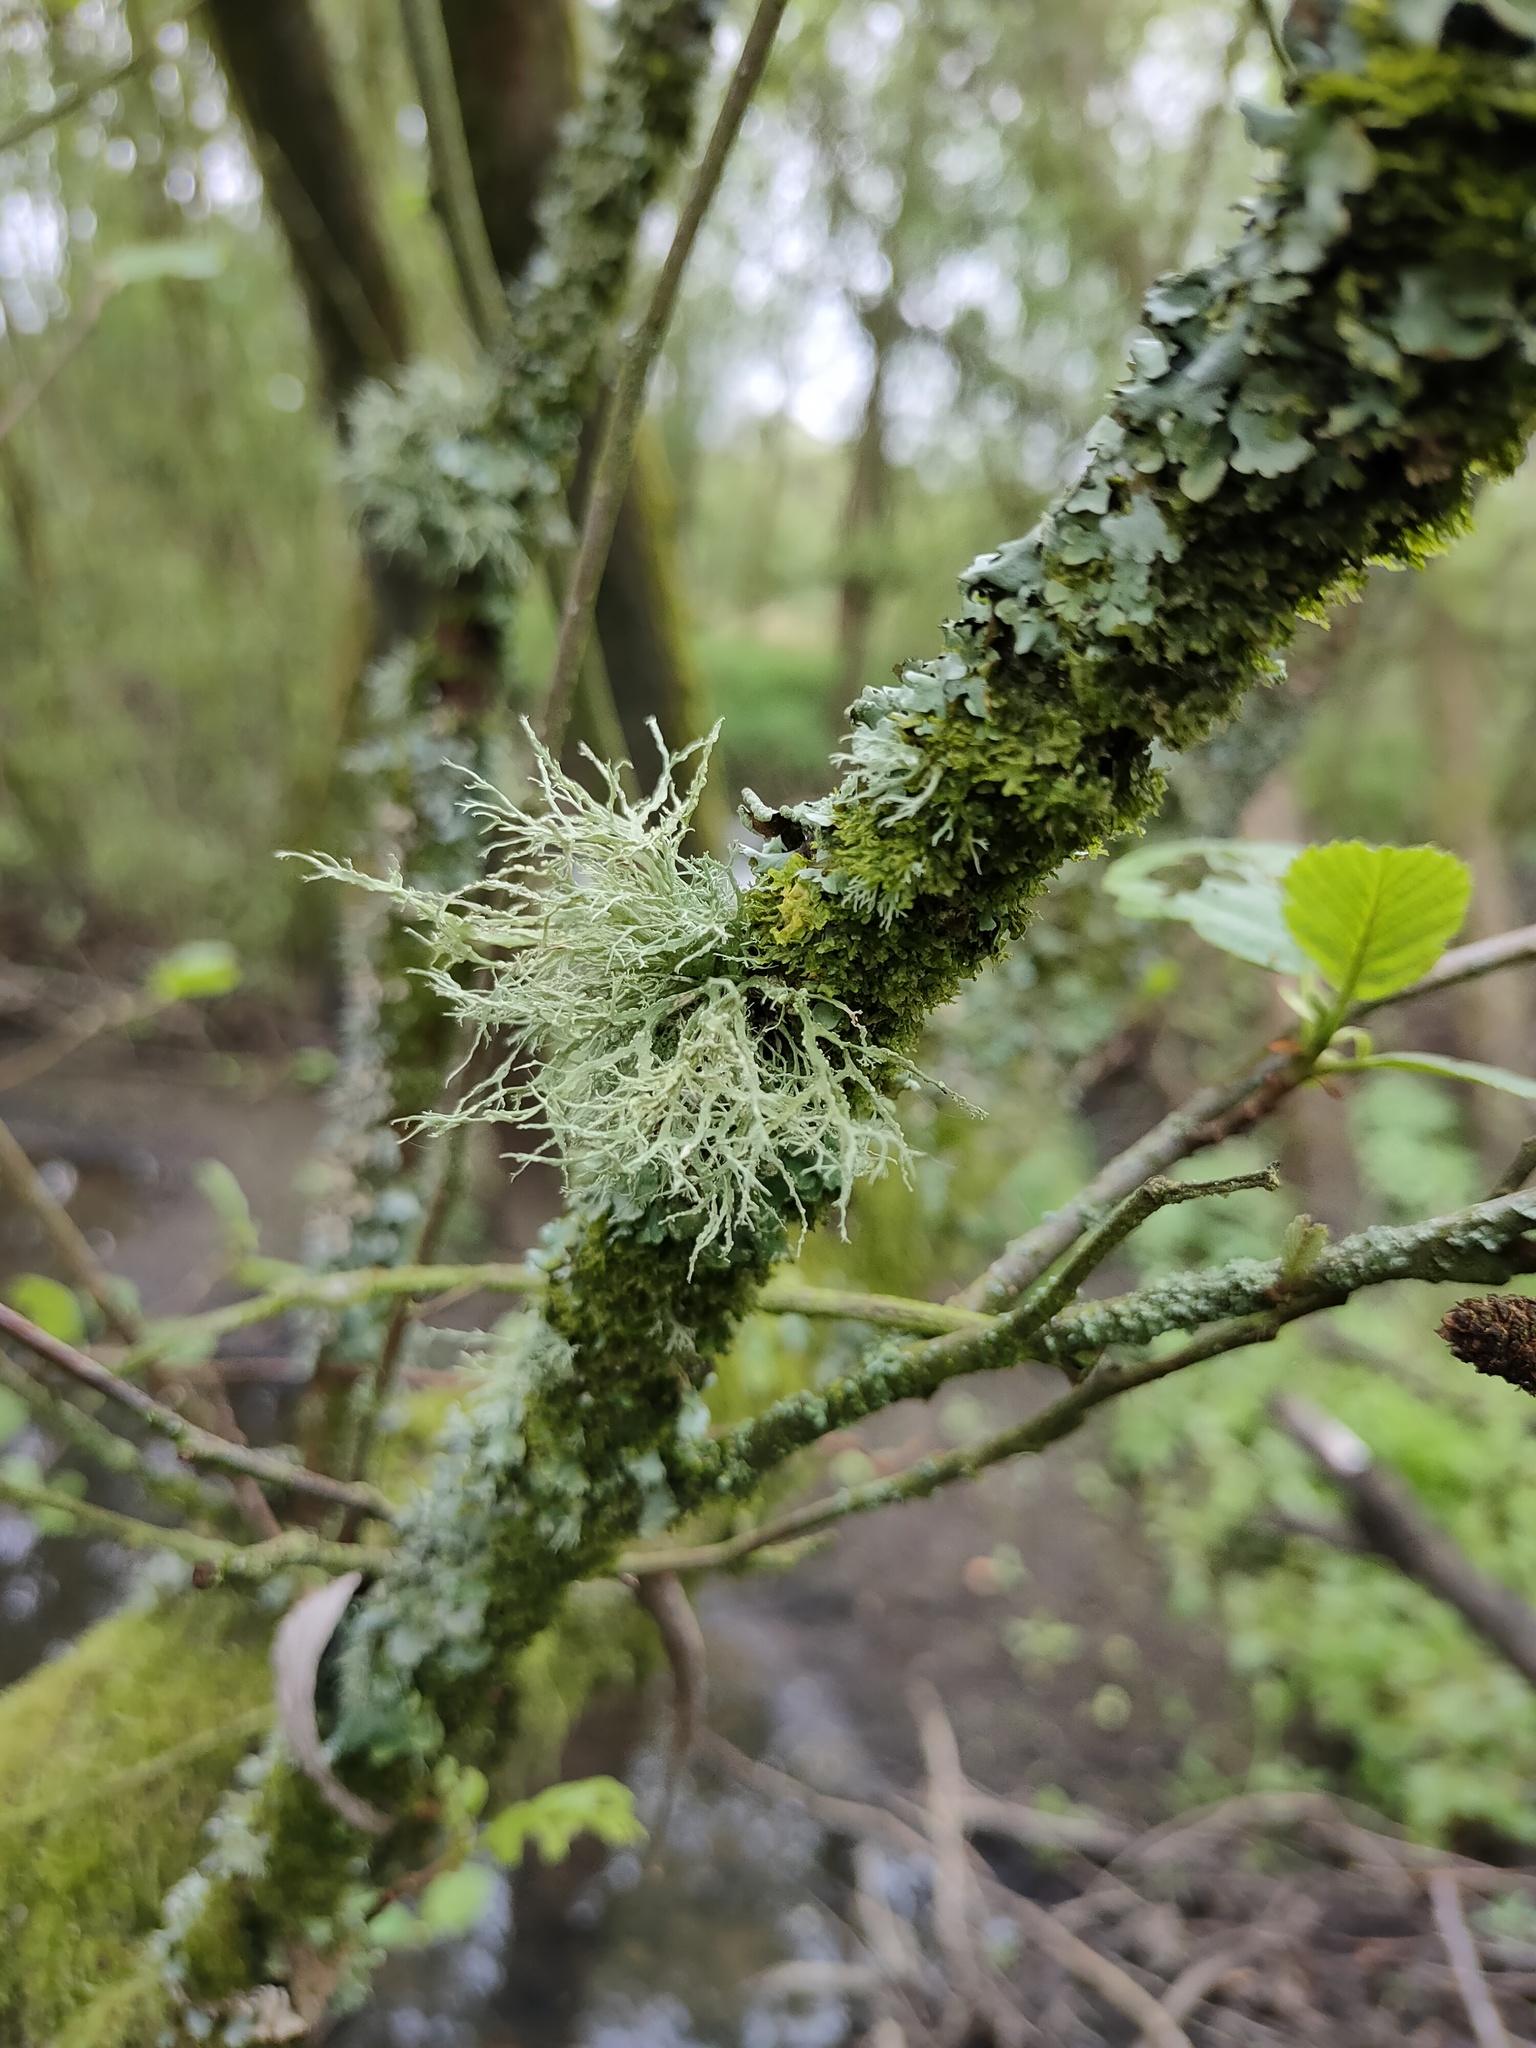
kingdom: Fungi
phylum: Ascomycota
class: Lecanoromycetes
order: Lecanorales
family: Ramalinaceae
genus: Ramalina
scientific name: Ramalina farinacea
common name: Farinose cartilage lichen
